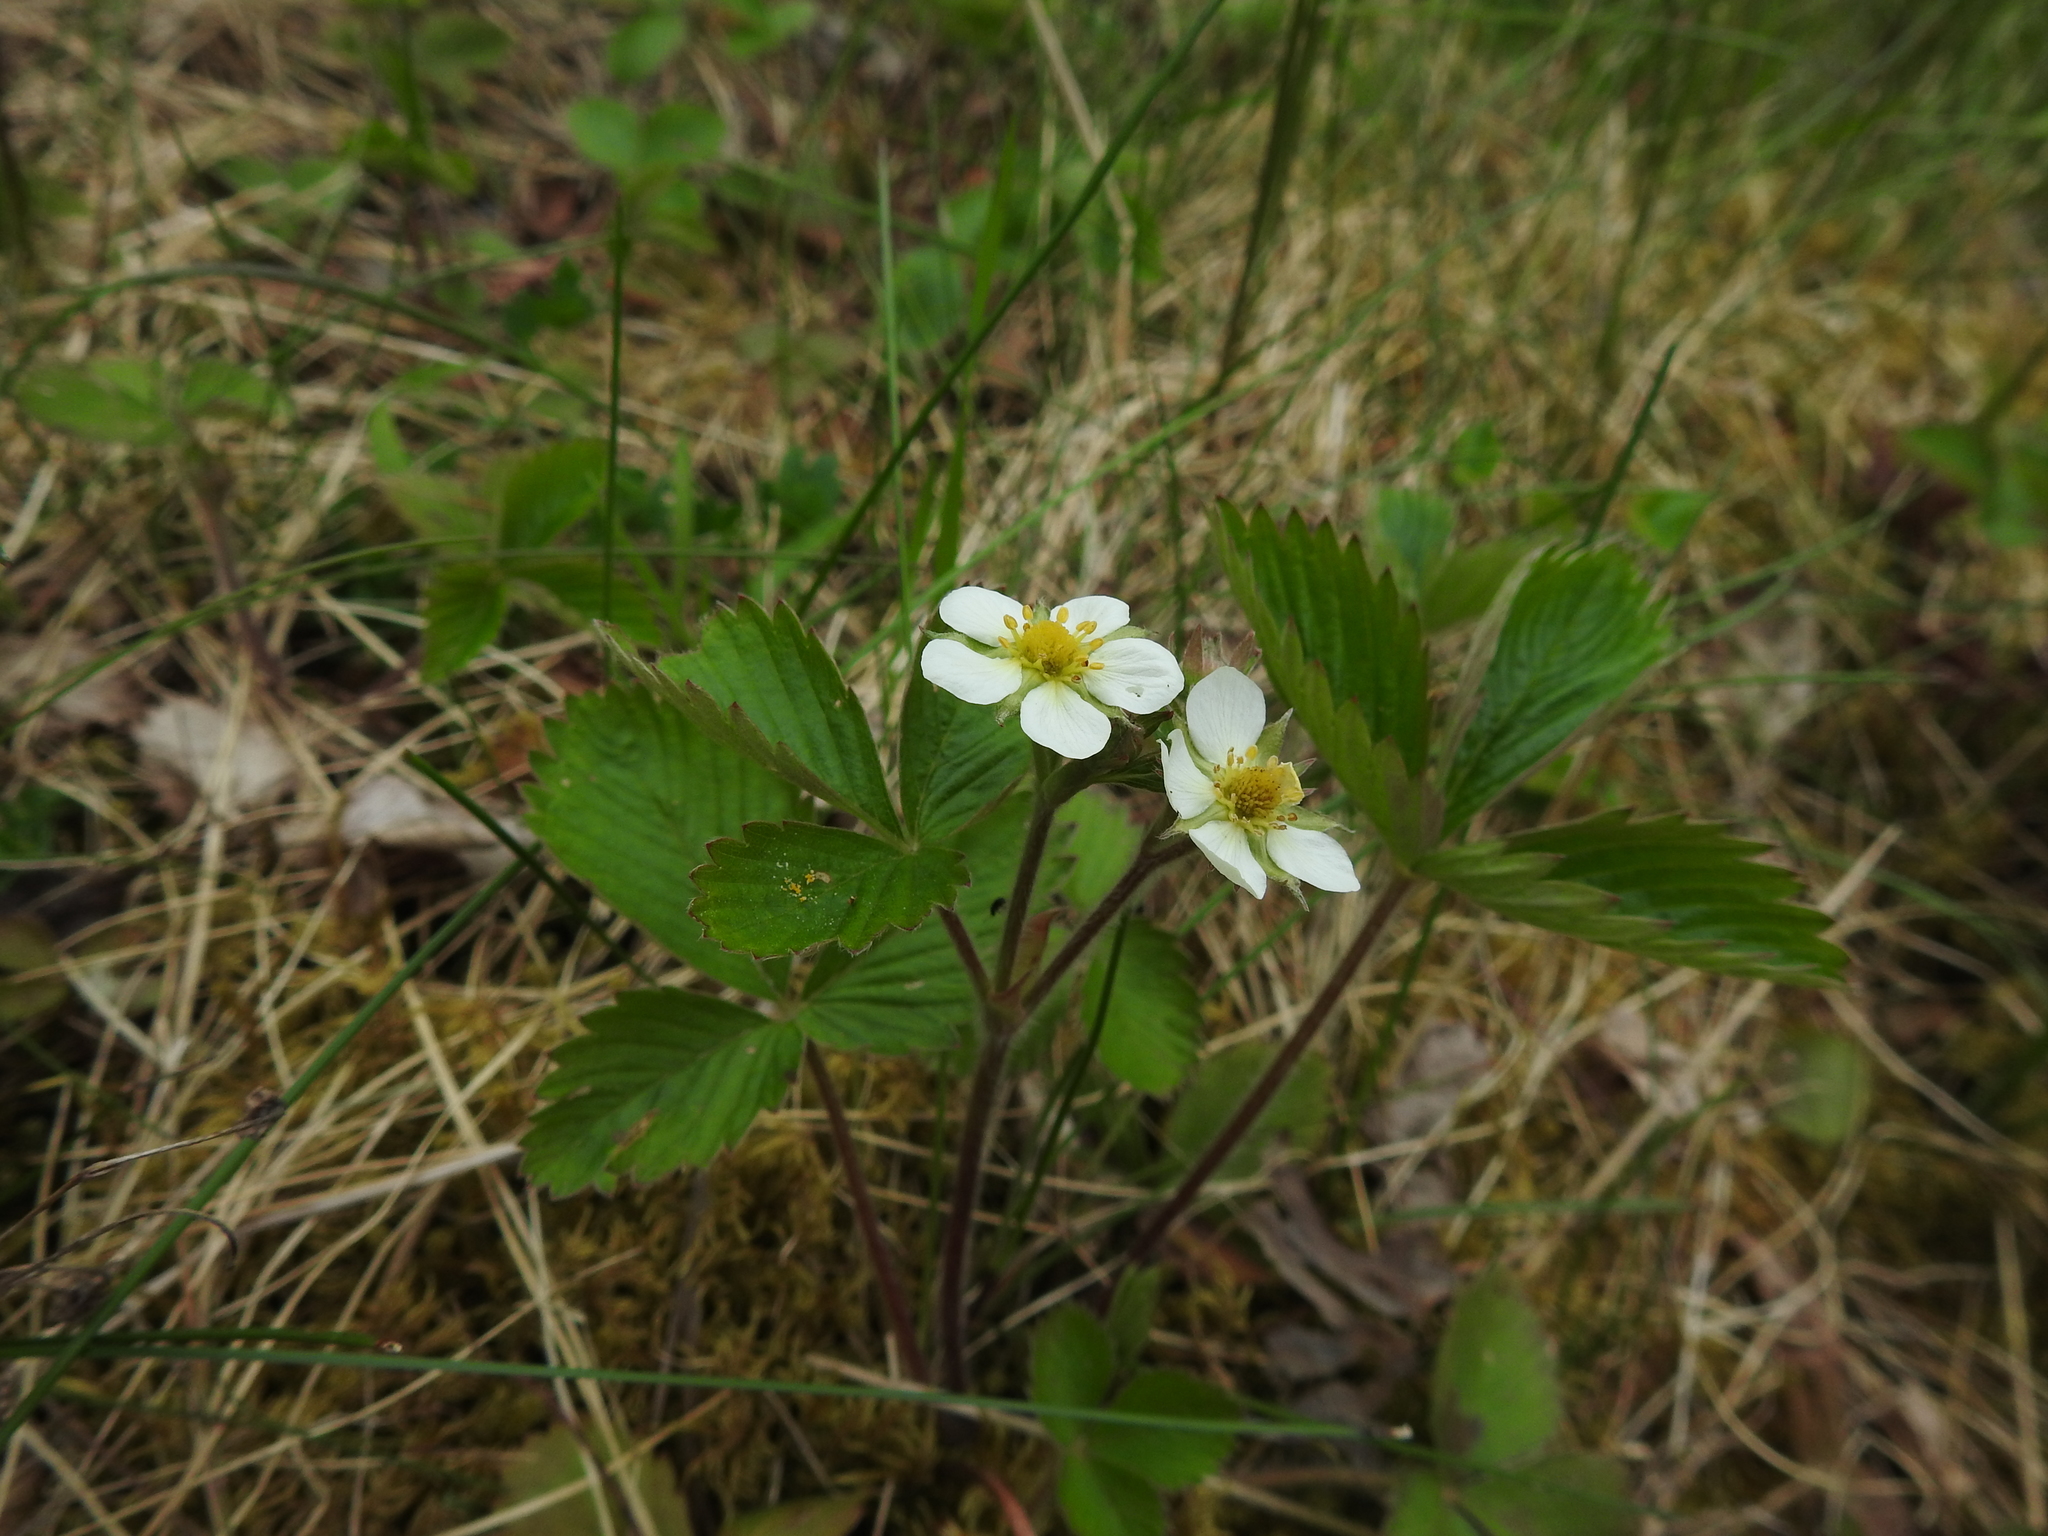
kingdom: Plantae
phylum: Tracheophyta
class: Magnoliopsida
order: Rosales
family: Rosaceae
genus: Fragaria
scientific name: Fragaria vesca
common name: Wild strawberry
